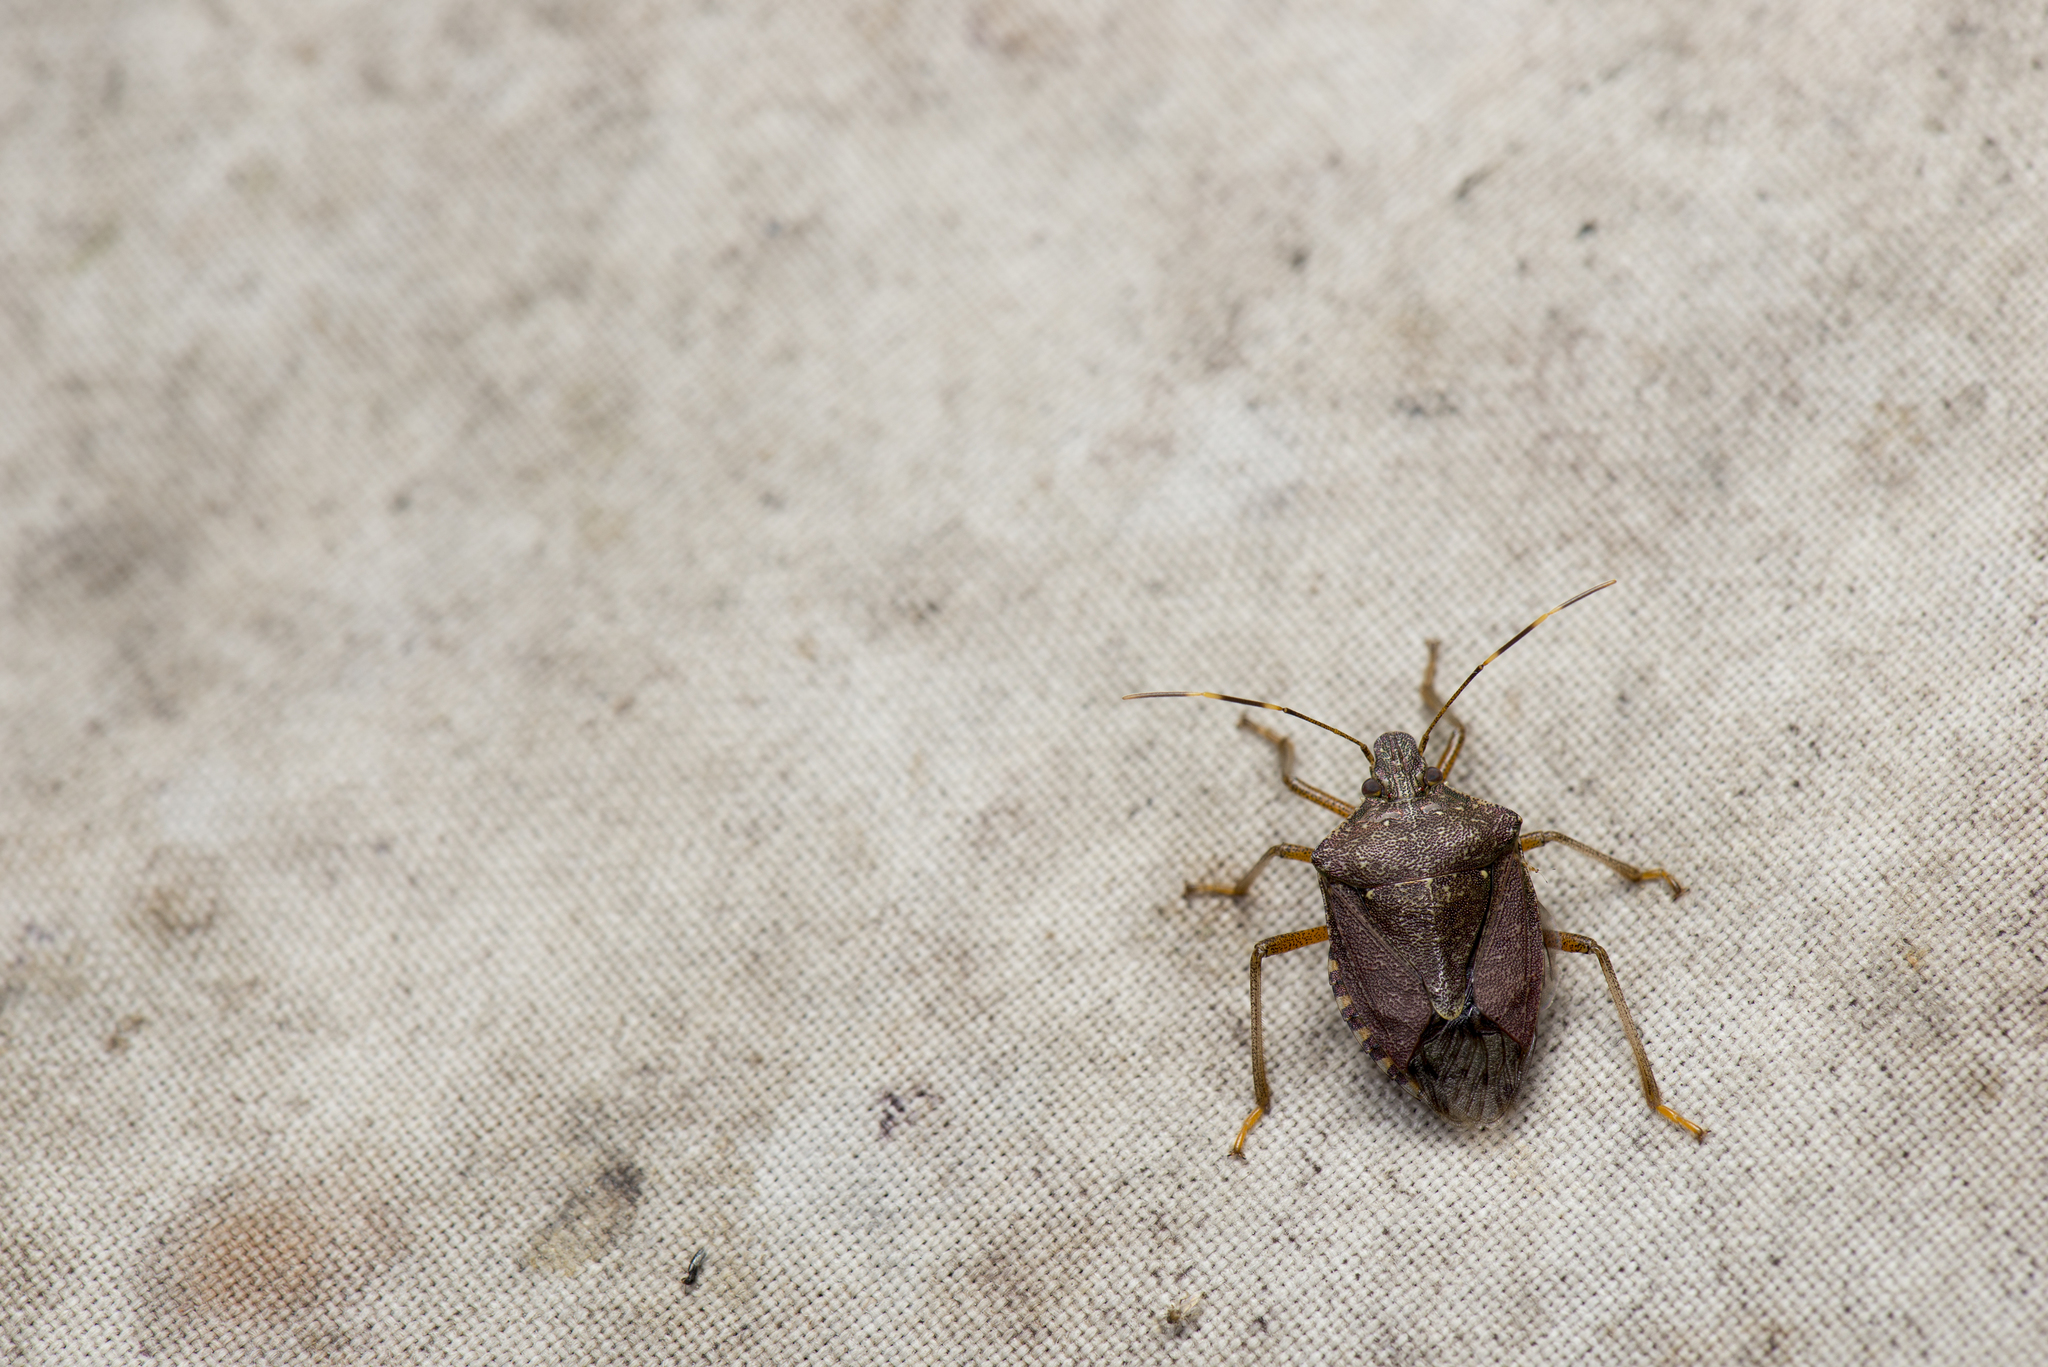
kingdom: Animalia
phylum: Arthropoda
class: Insecta
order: Hemiptera
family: Pentatomidae
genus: Halyomorpha
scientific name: Halyomorpha halys
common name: Brown marmorated stink bug
